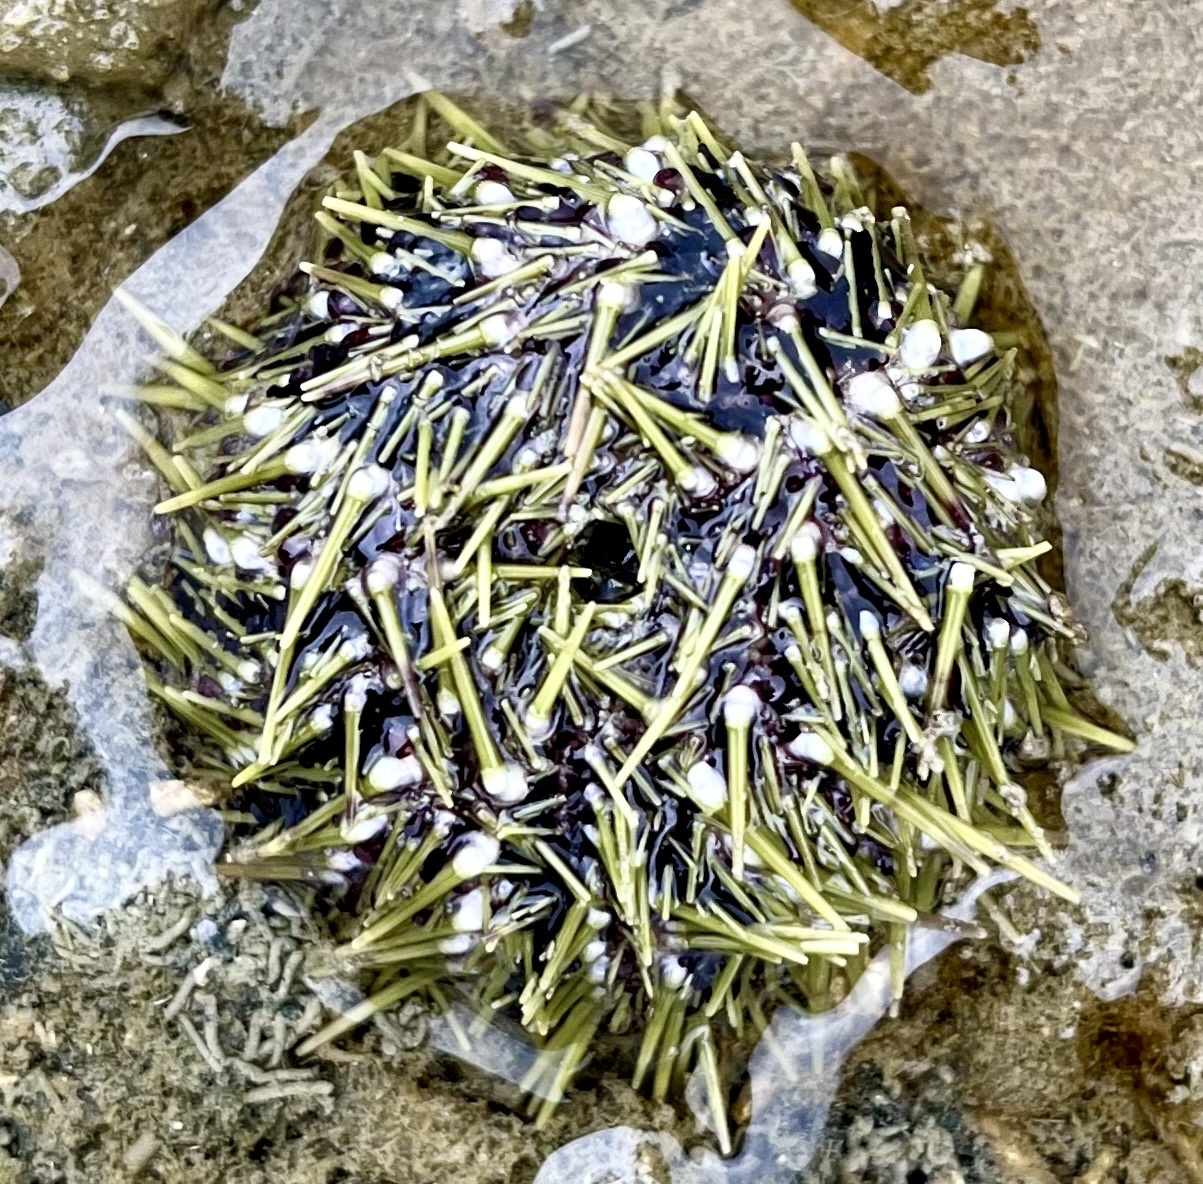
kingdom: Animalia
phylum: Echinodermata
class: Echinoidea
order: Camarodonta
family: Strongylocentrotidae
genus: Strongylocentrotus
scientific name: Strongylocentrotus droebachiensis
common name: Northern sea urchin
